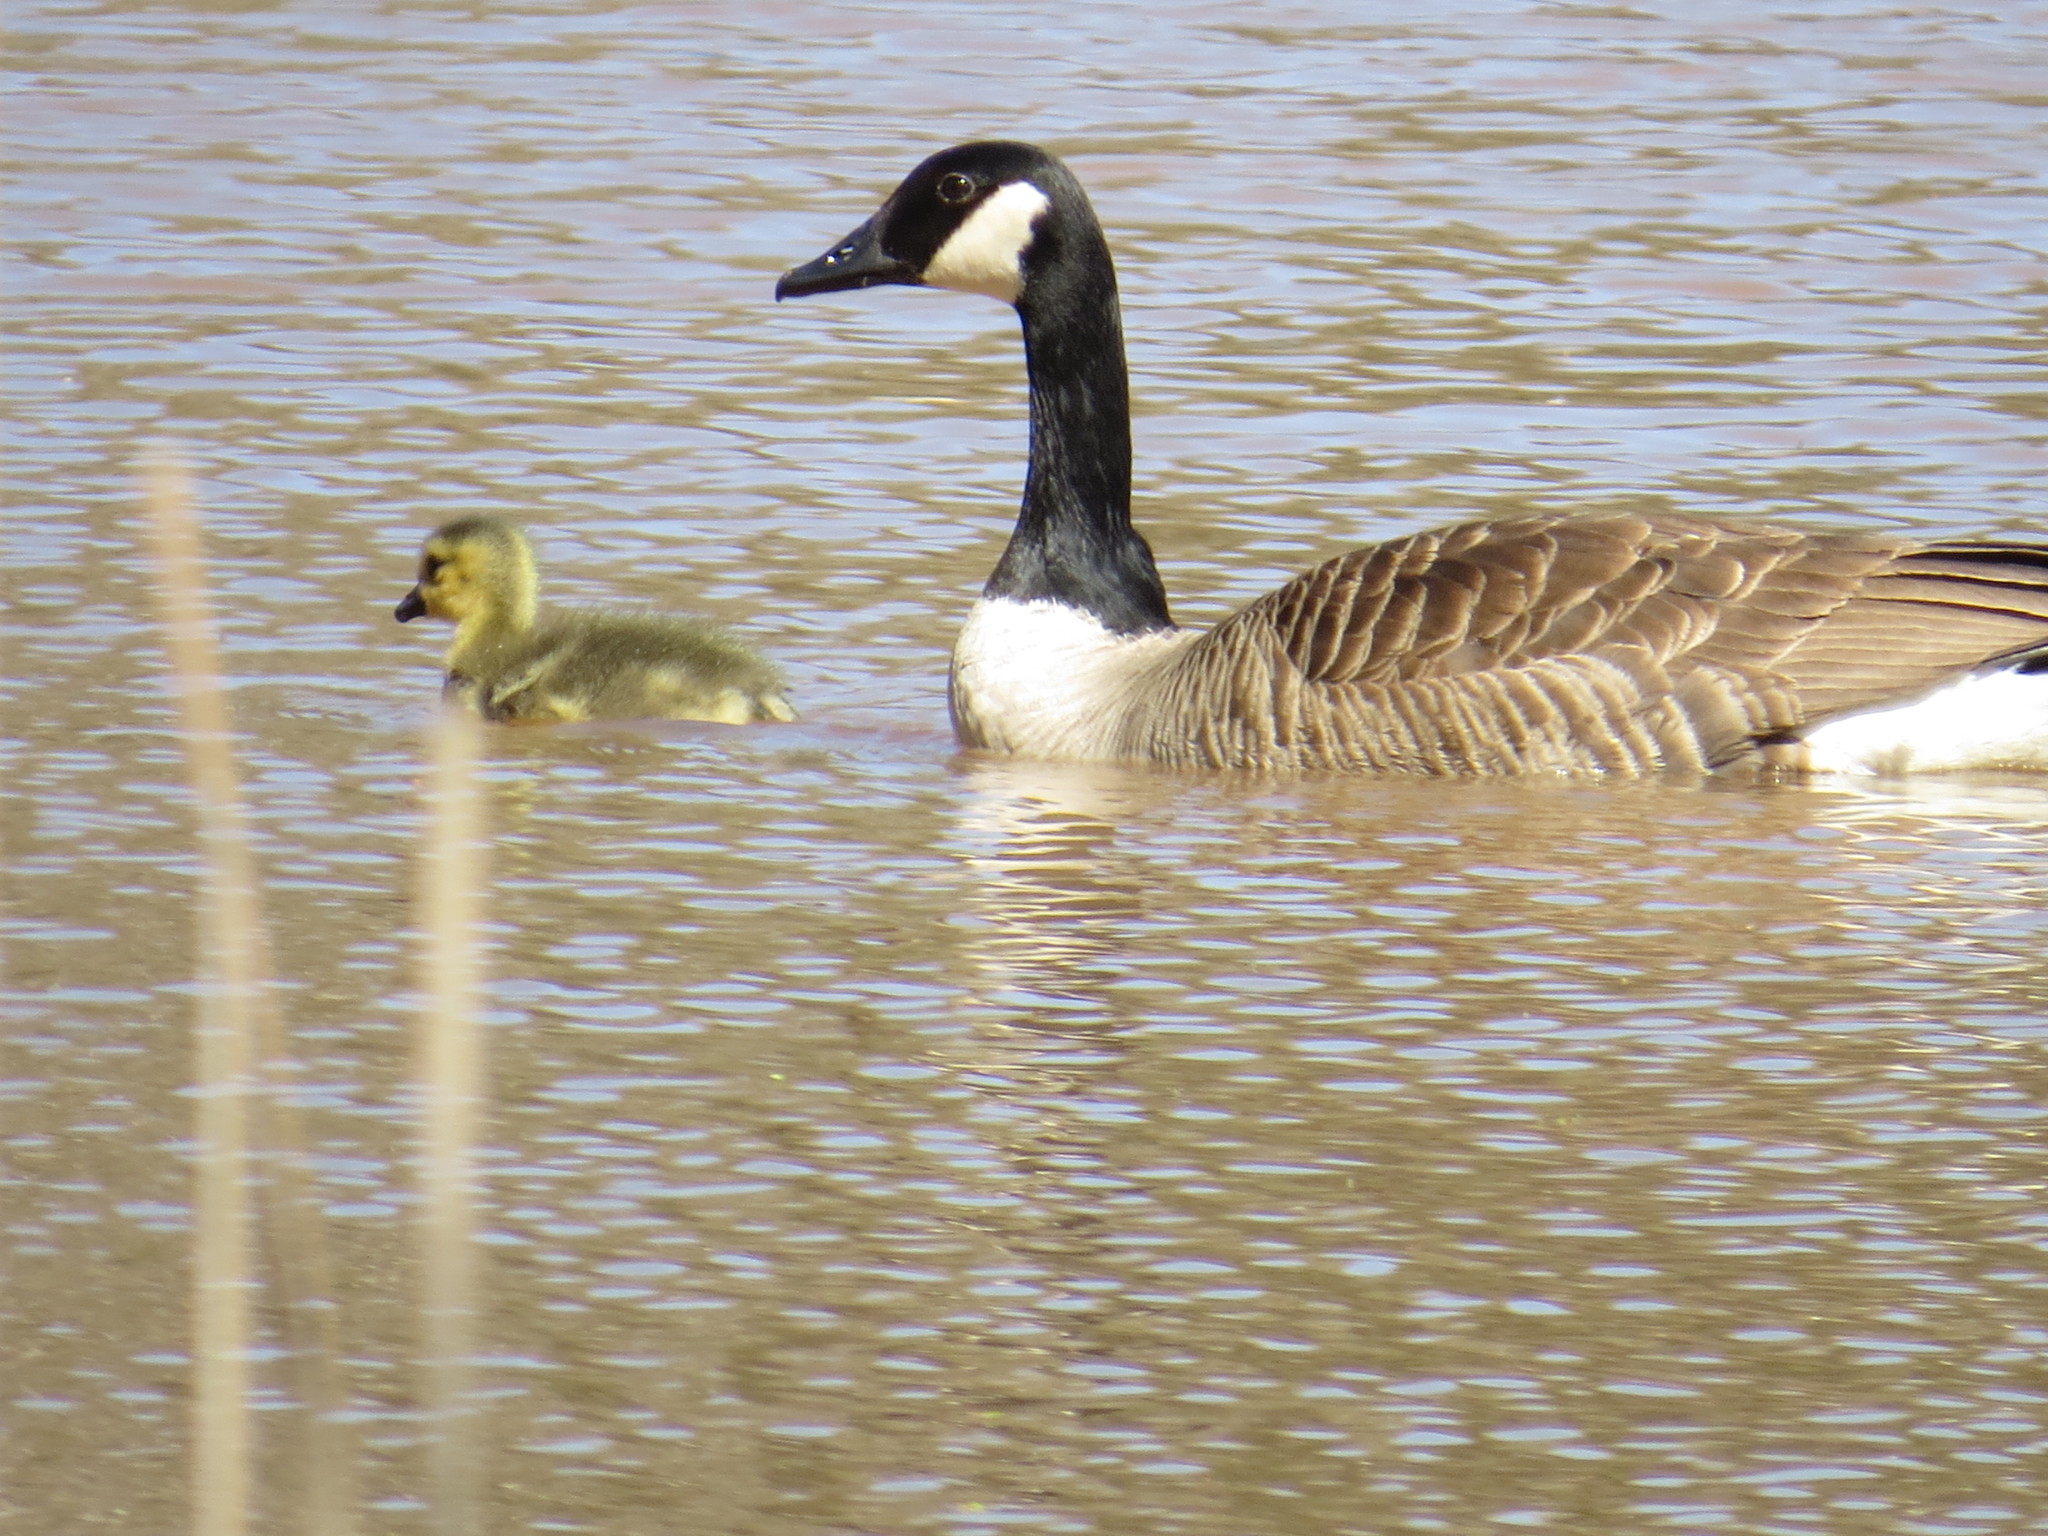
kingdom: Animalia
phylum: Chordata
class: Aves
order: Anseriformes
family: Anatidae
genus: Branta
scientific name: Branta canadensis
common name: Canada goose
